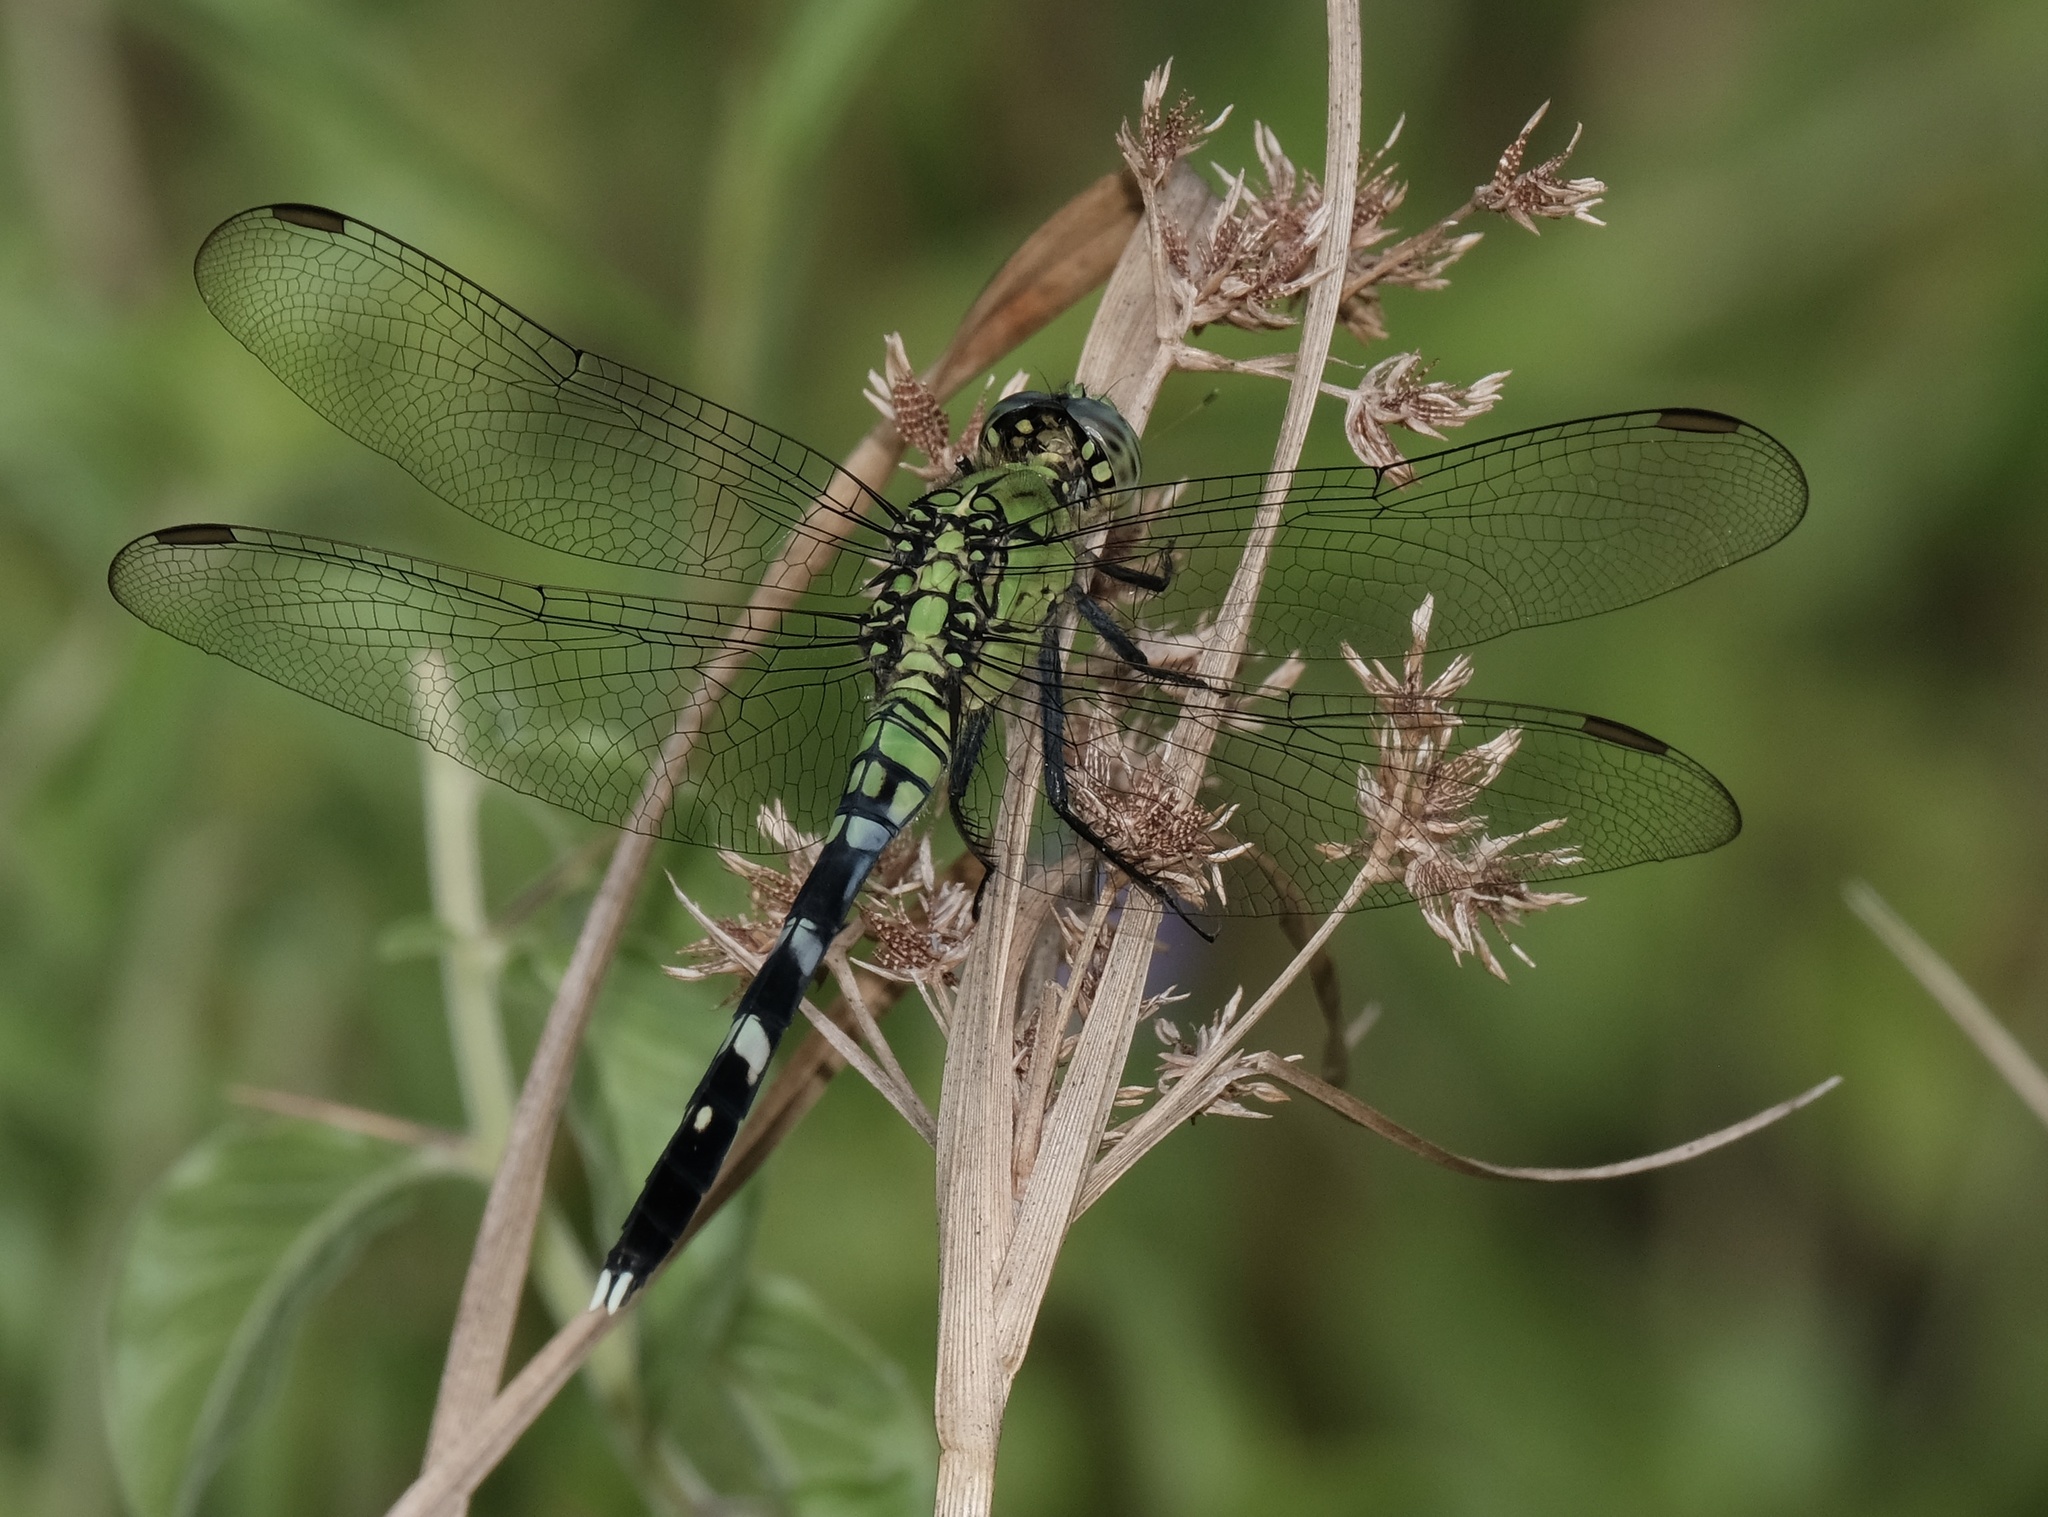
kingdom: Animalia
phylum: Arthropoda
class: Insecta
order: Odonata
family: Libellulidae
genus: Erythemis
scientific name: Erythemis simplicicollis
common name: Eastern pondhawk
